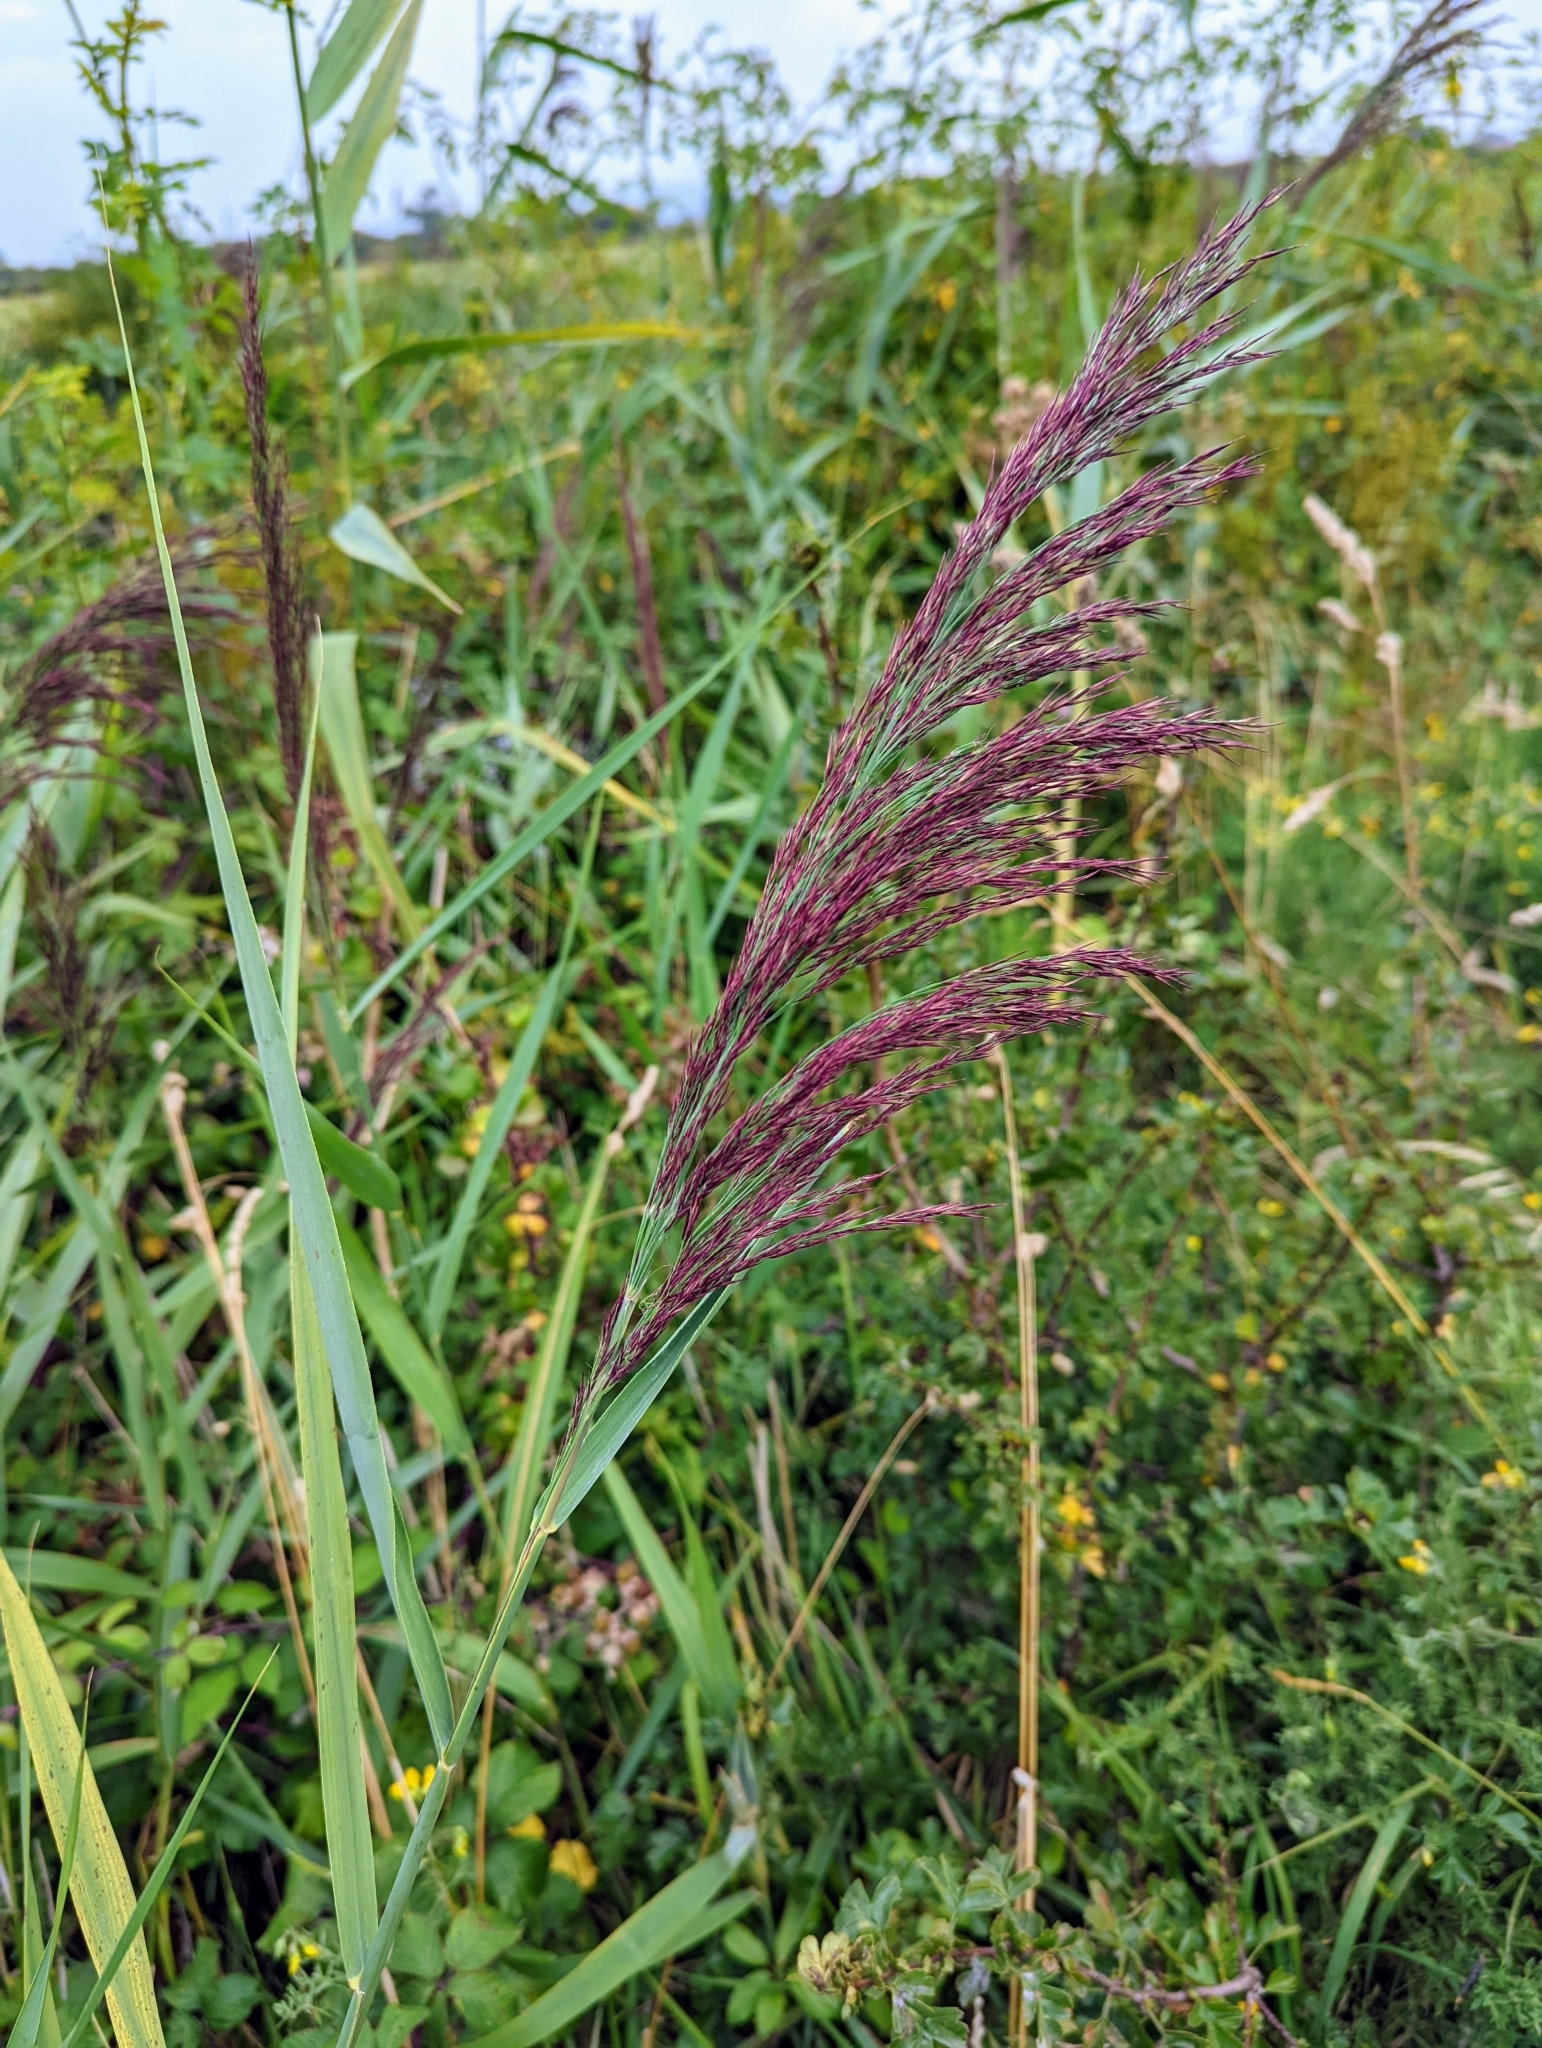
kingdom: Plantae
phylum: Tracheophyta
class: Liliopsida
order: Poales
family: Poaceae
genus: Phragmites
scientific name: Phragmites australis
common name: Common reed
